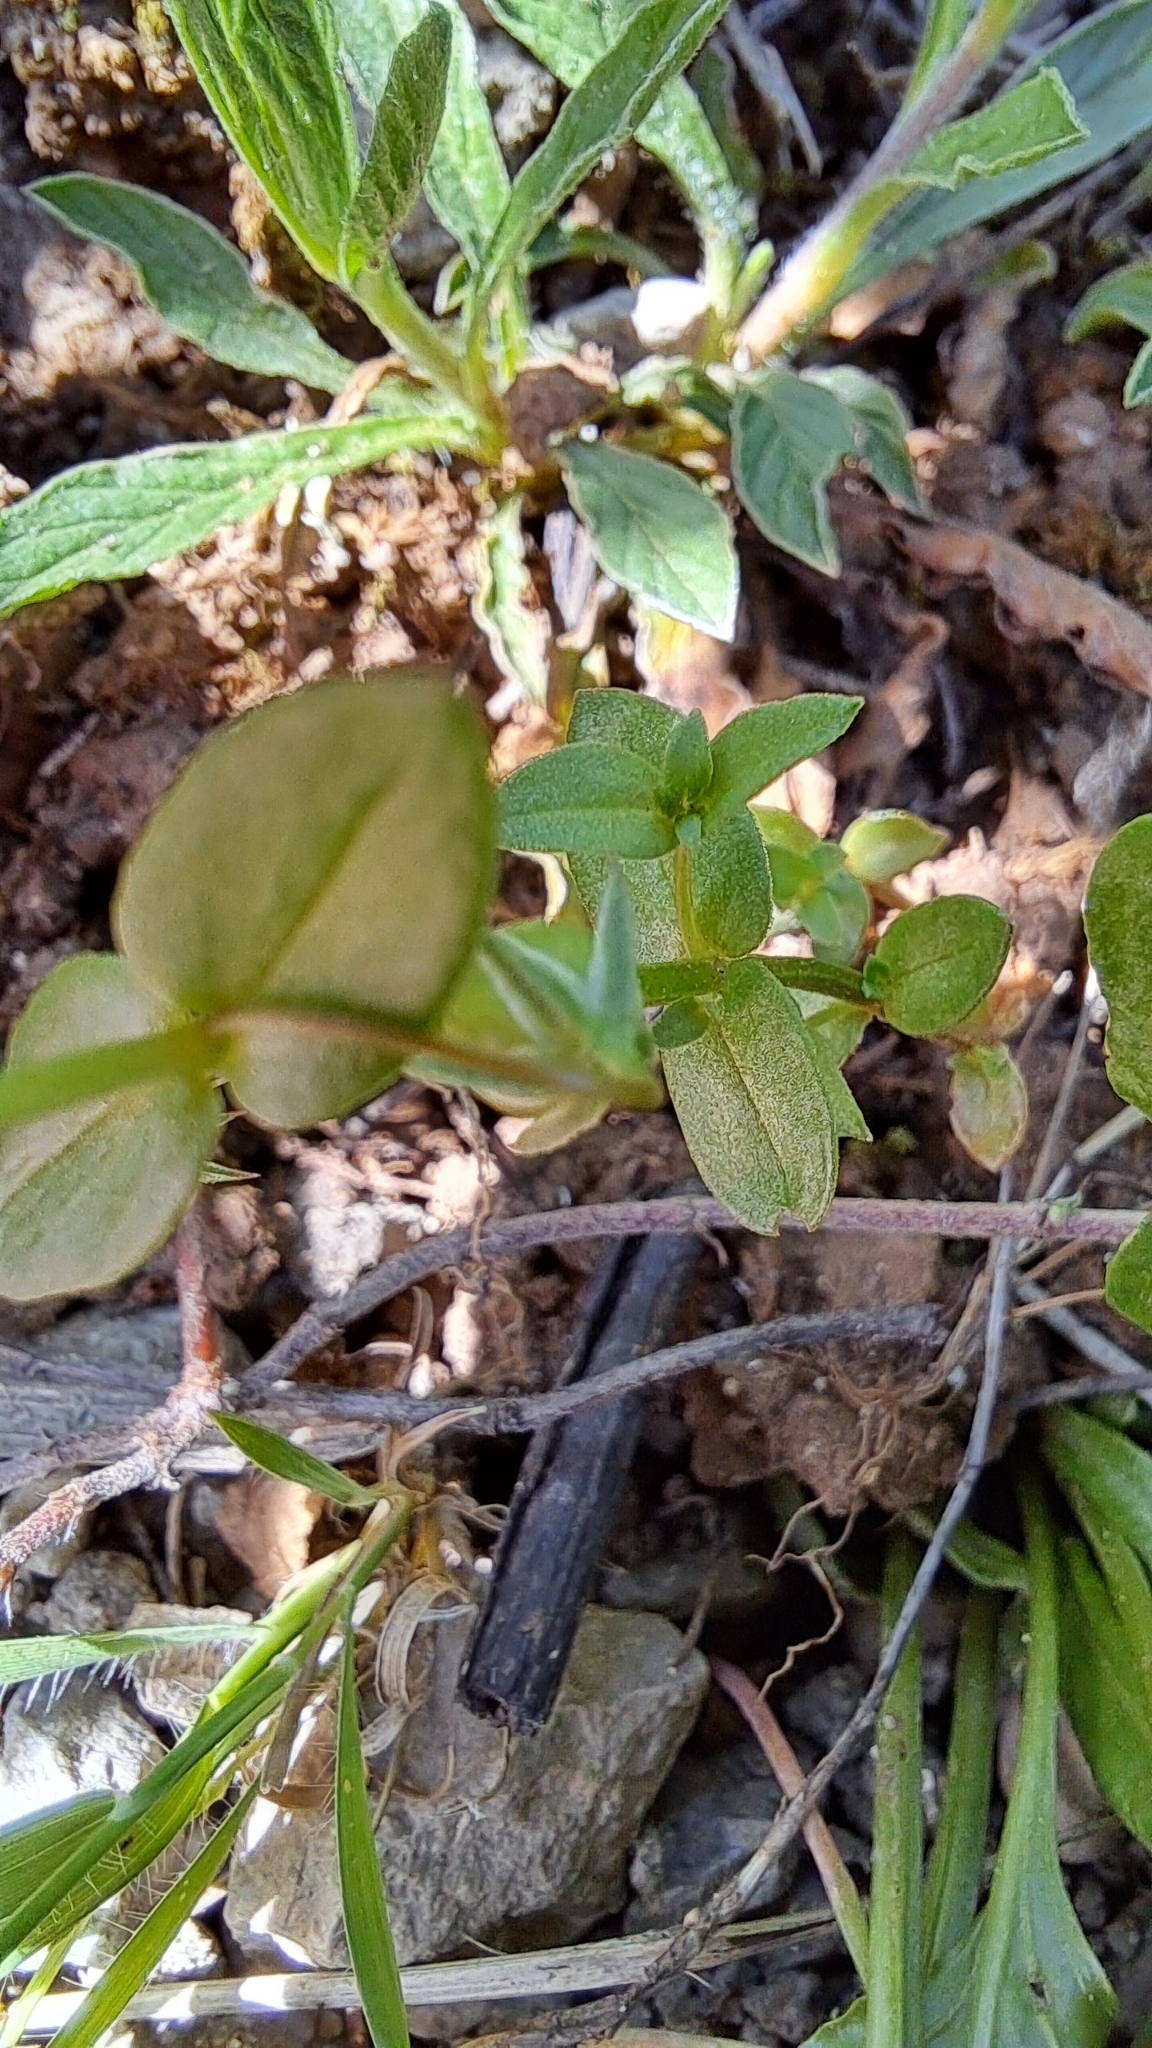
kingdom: Plantae
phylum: Tracheophyta
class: Magnoliopsida
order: Ericales
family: Primulaceae
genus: Lysimachia
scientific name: Lysimachia arvensis
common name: Scarlet pimpernel
